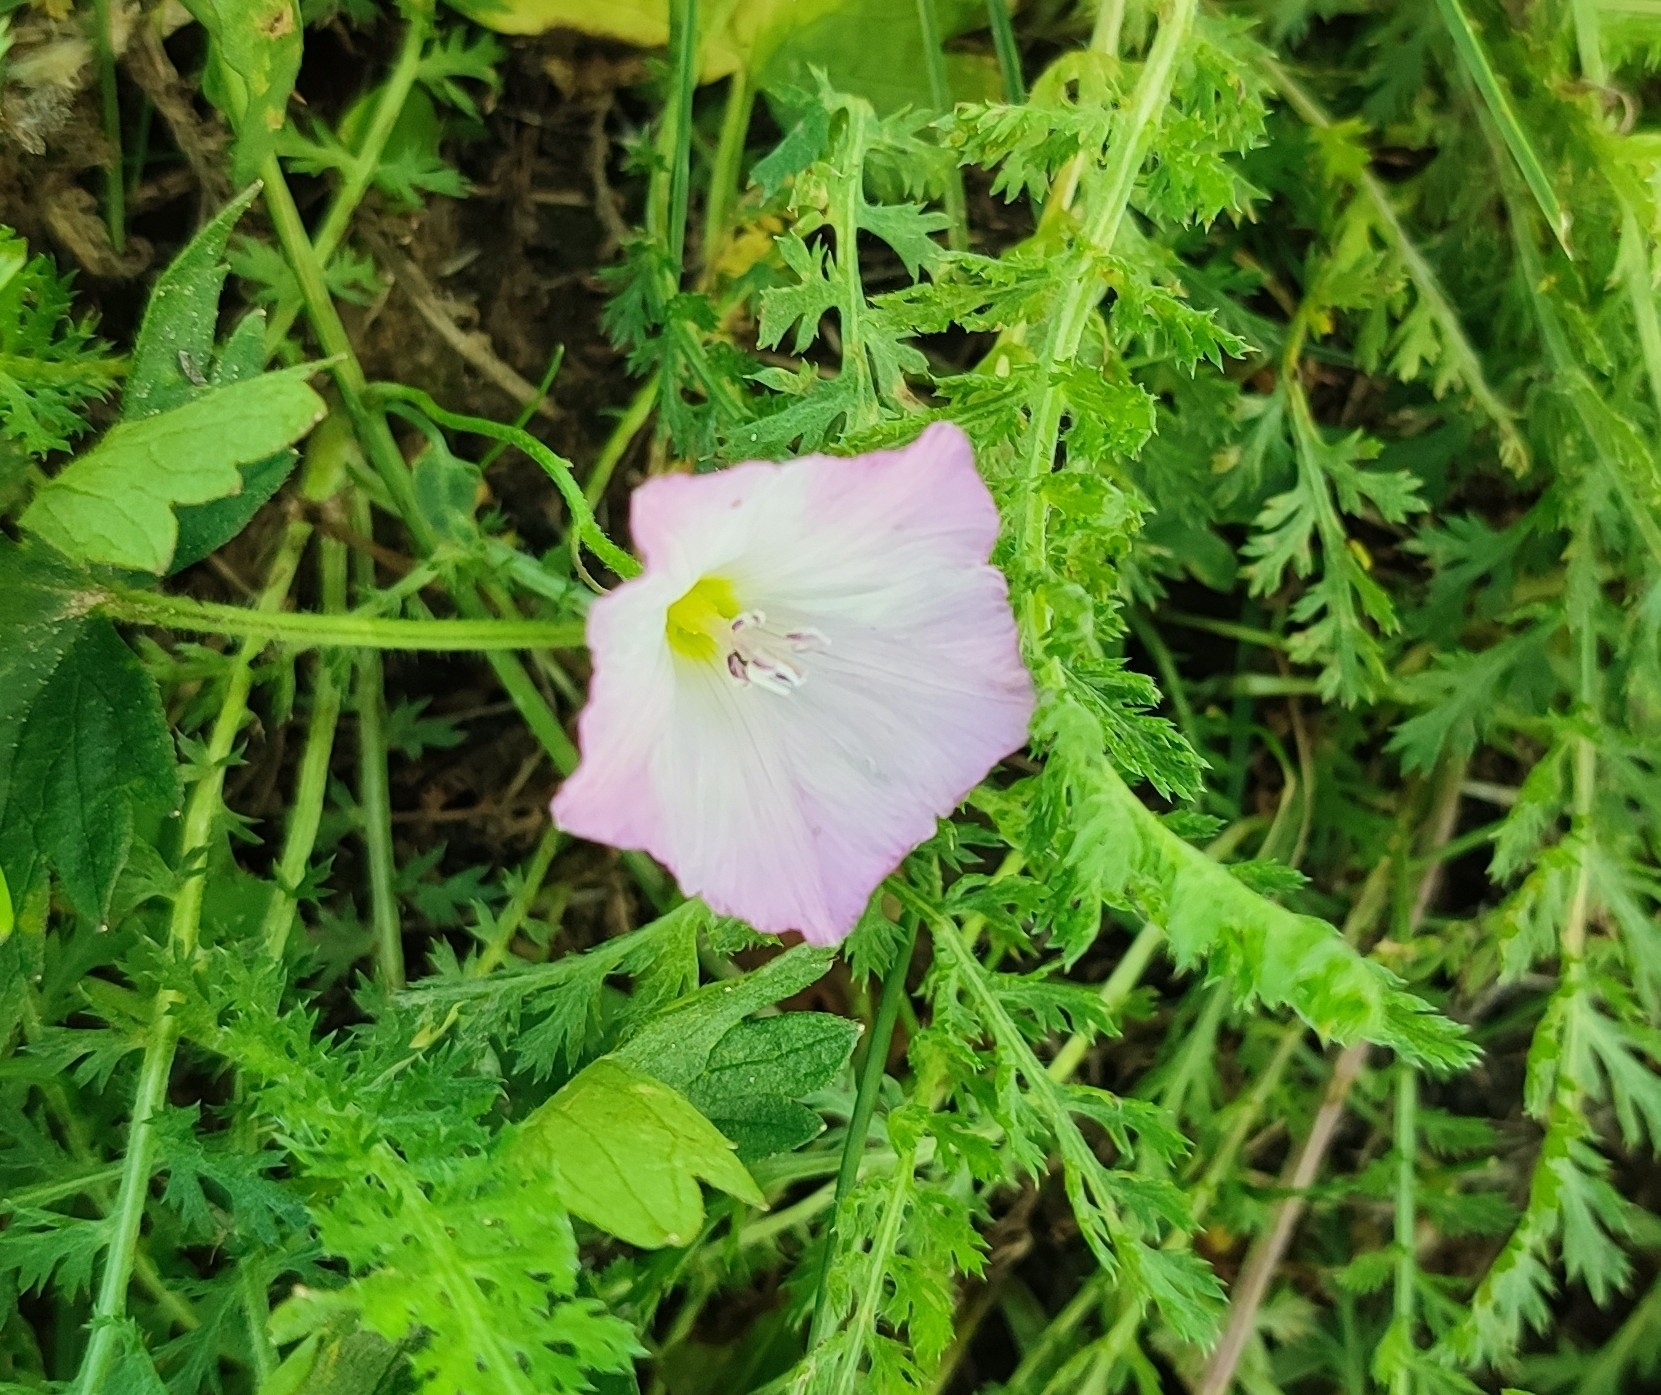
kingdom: Plantae
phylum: Tracheophyta
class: Magnoliopsida
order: Solanales
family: Convolvulaceae
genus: Convolvulus
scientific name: Convolvulus arvensis
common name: Field bindweed
